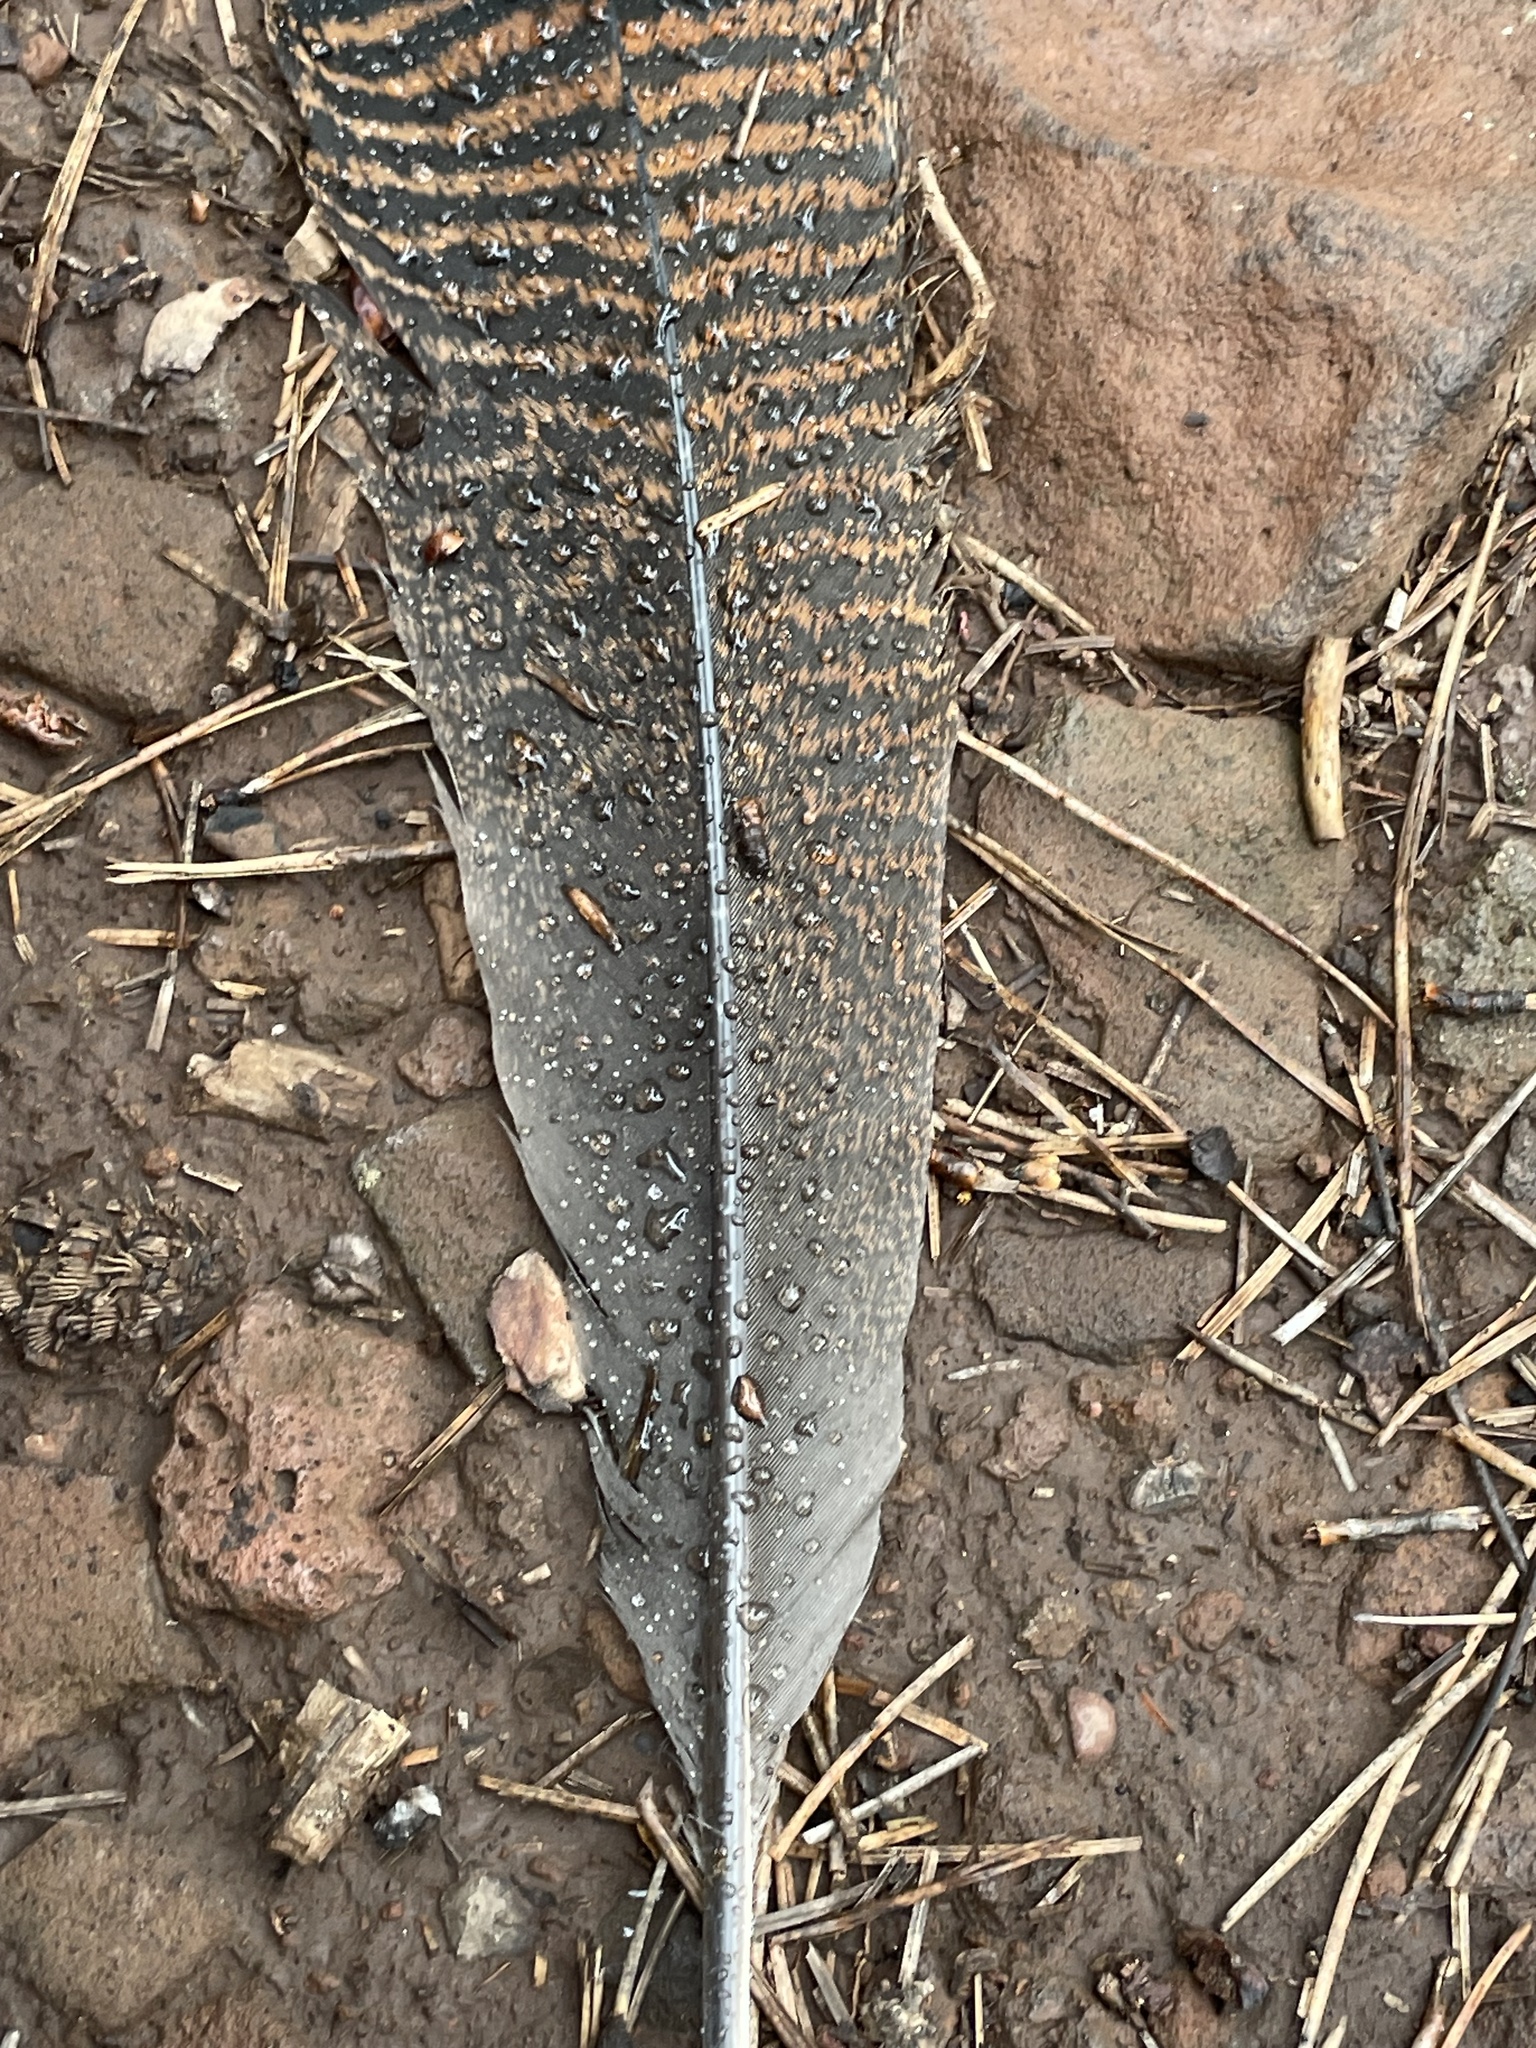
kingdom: Animalia
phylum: Chordata
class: Aves
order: Galliformes
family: Phasianidae
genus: Meleagris
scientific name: Meleagris gallopavo
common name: Wild turkey
